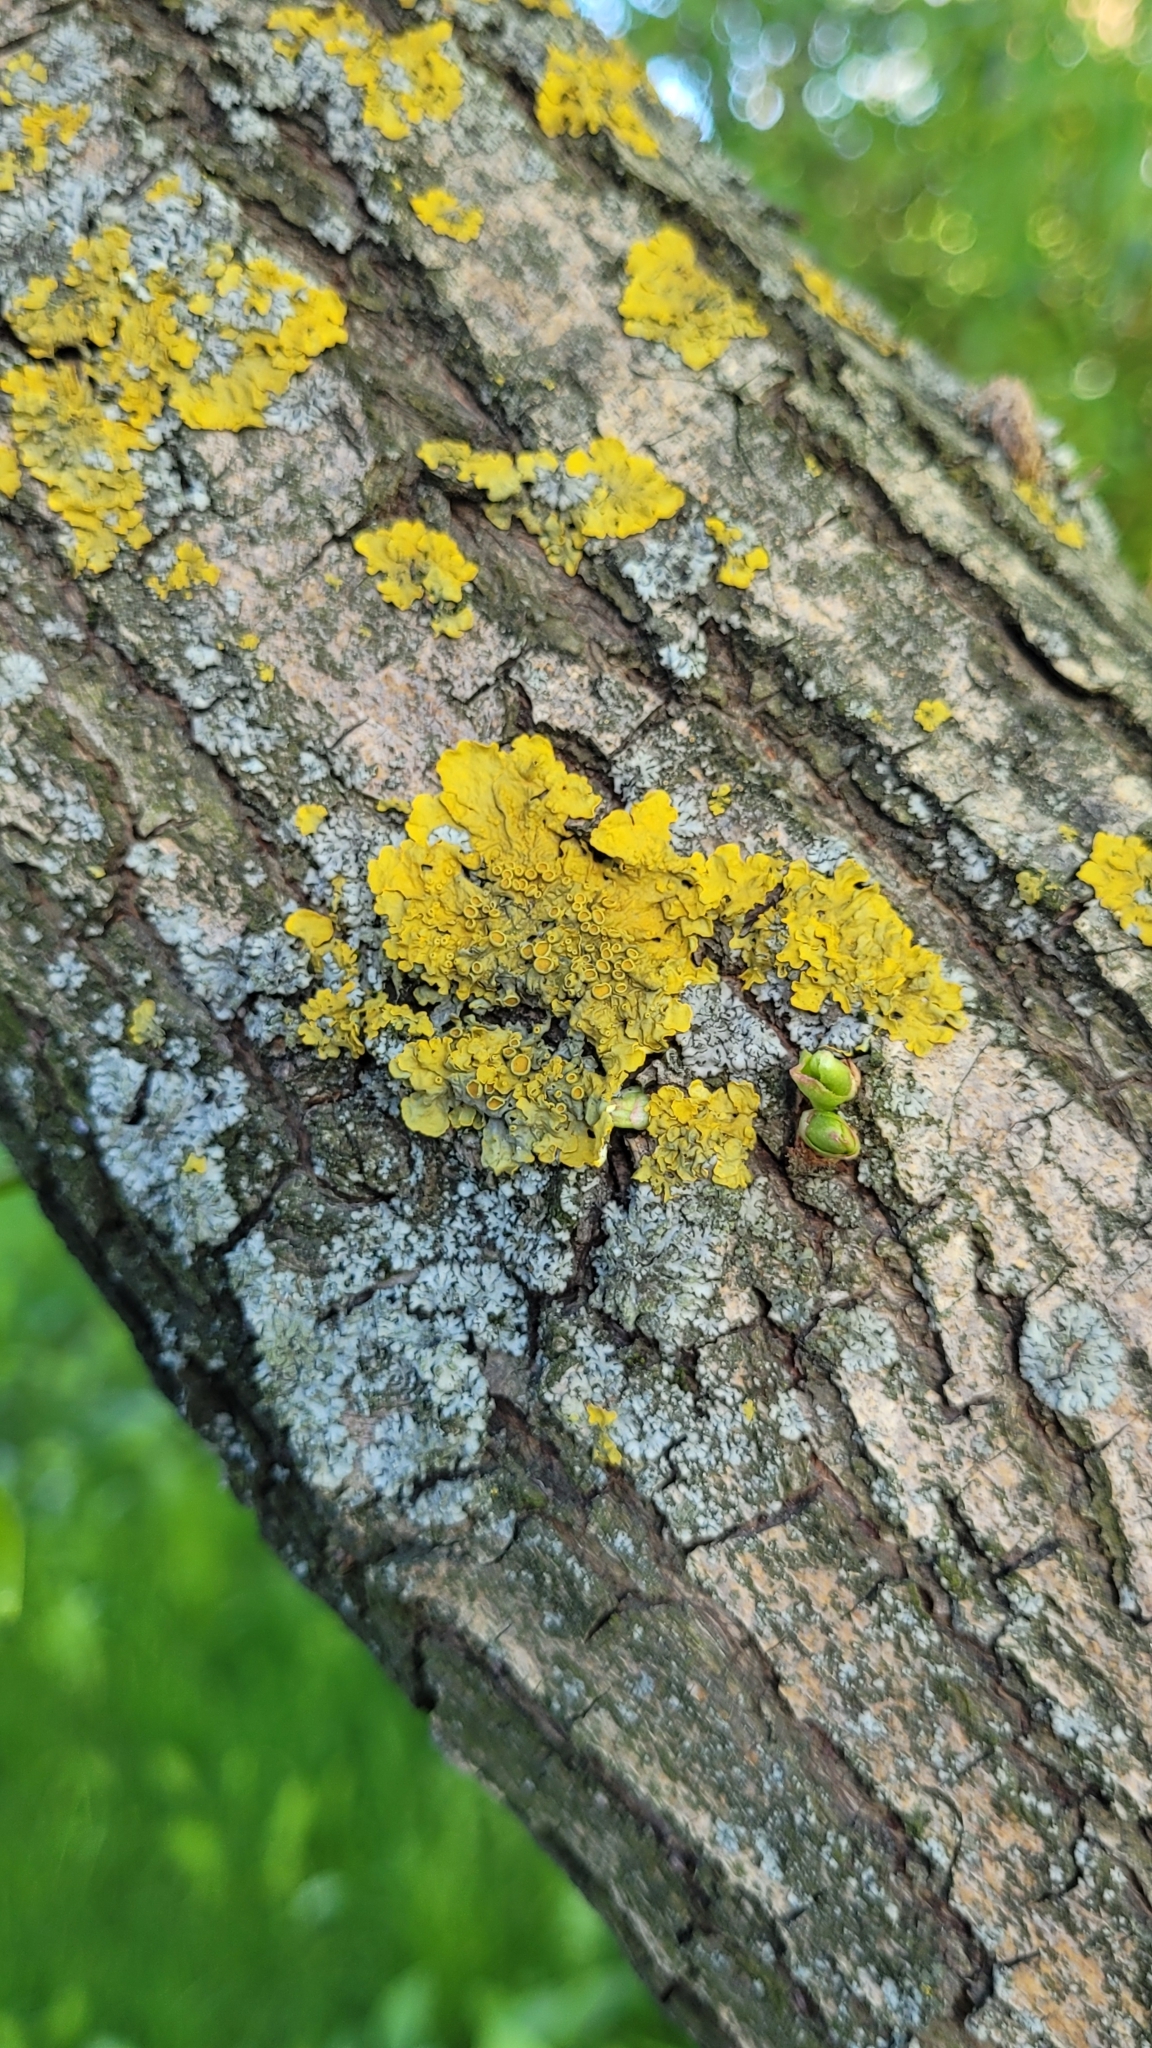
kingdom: Fungi
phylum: Ascomycota
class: Lecanoromycetes
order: Teloschistales
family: Teloschistaceae
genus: Xanthoria
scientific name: Xanthoria parietina
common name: Common orange lichen
